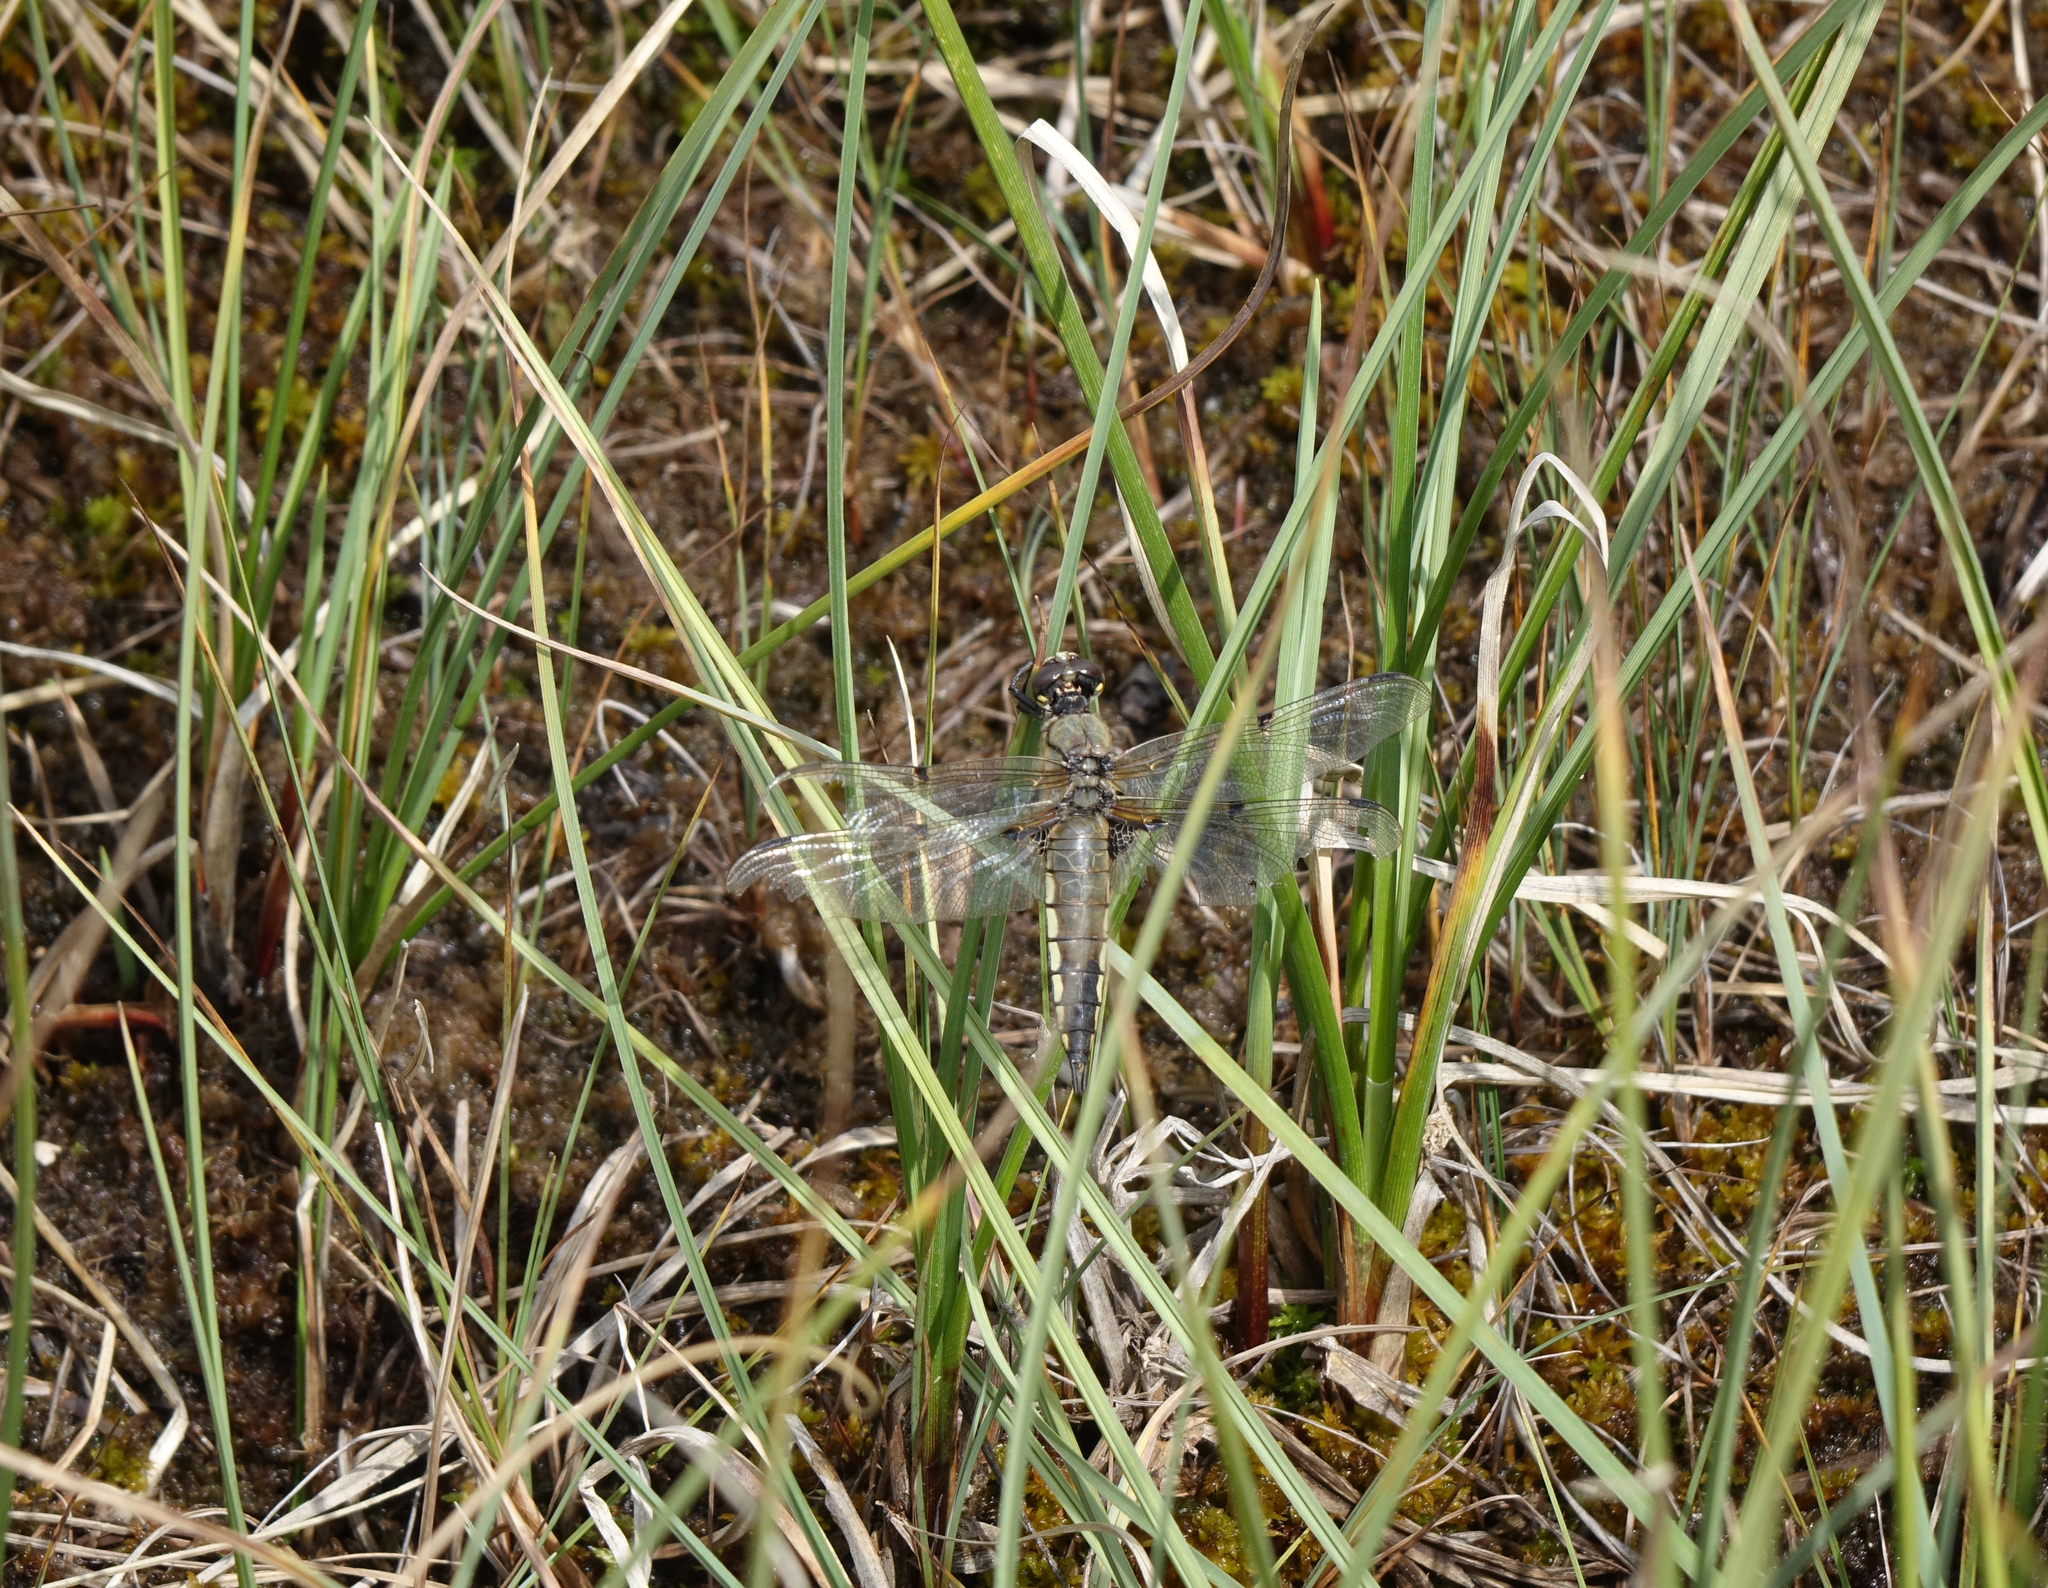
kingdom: Animalia
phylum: Arthropoda
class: Insecta
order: Odonata
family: Libellulidae
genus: Libellula
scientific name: Libellula quadrimaculata
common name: Four-spotted chaser
